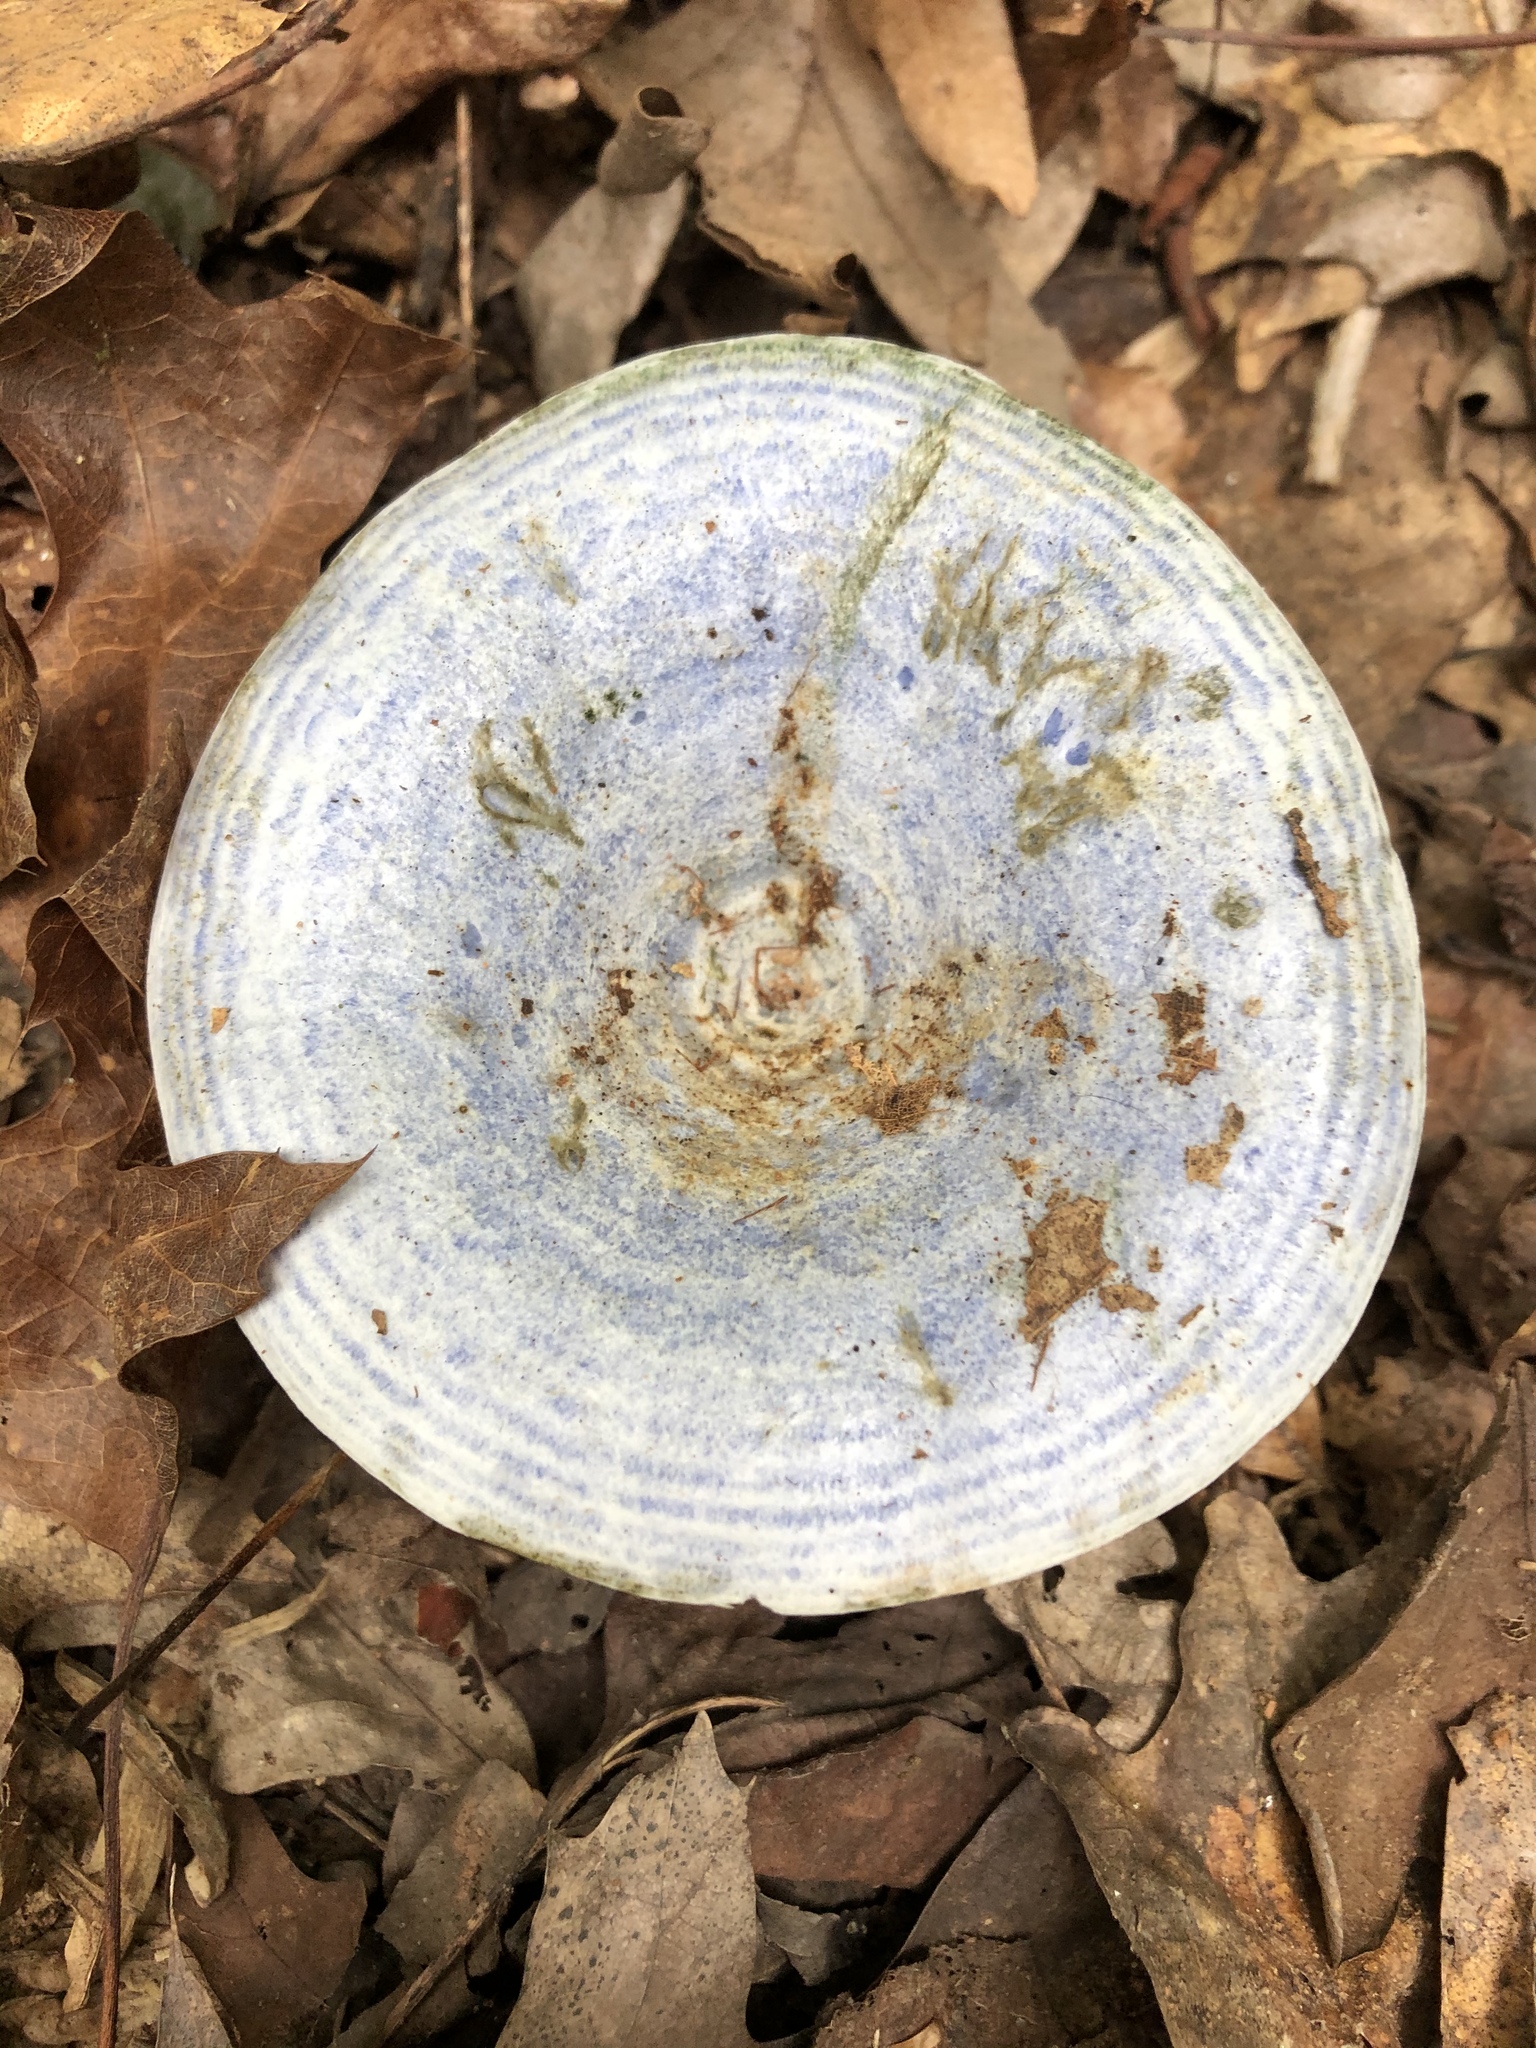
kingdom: Fungi
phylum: Basidiomycota
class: Agaricomycetes
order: Russulales
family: Russulaceae
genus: Lactarius
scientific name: Lactarius indigo
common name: Indigo milk cap
